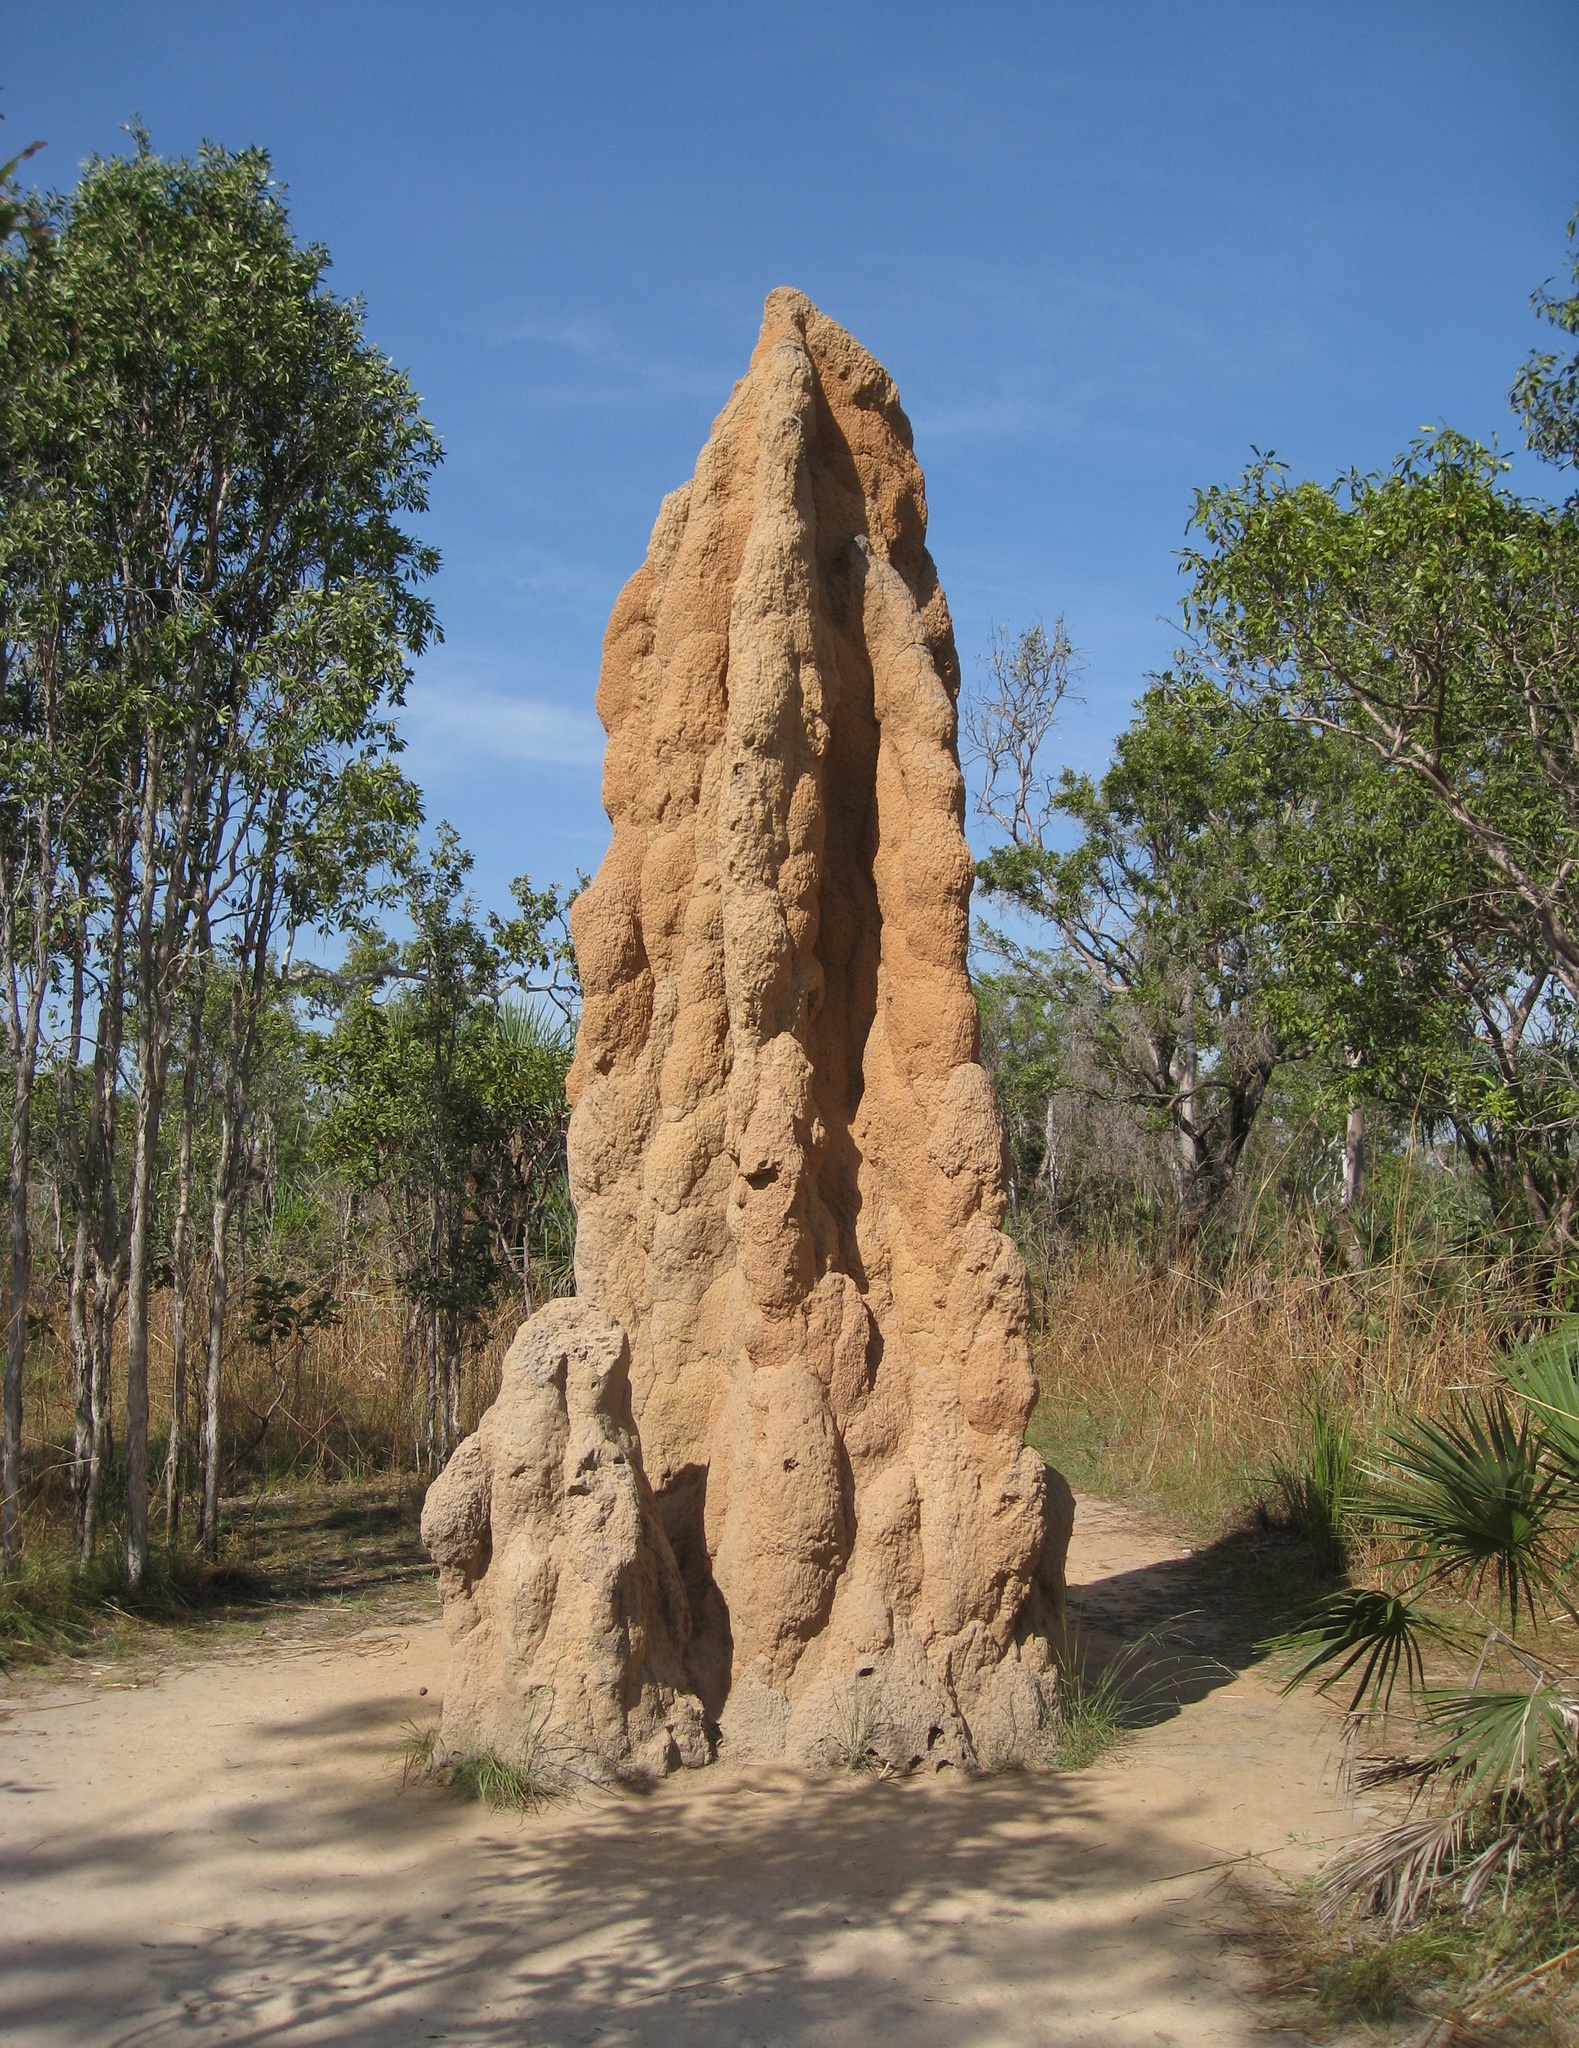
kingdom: Animalia
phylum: Arthropoda
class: Insecta
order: Blattodea
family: Termitidae
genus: Nasutitermes
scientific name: Nasutitermes triodiae
